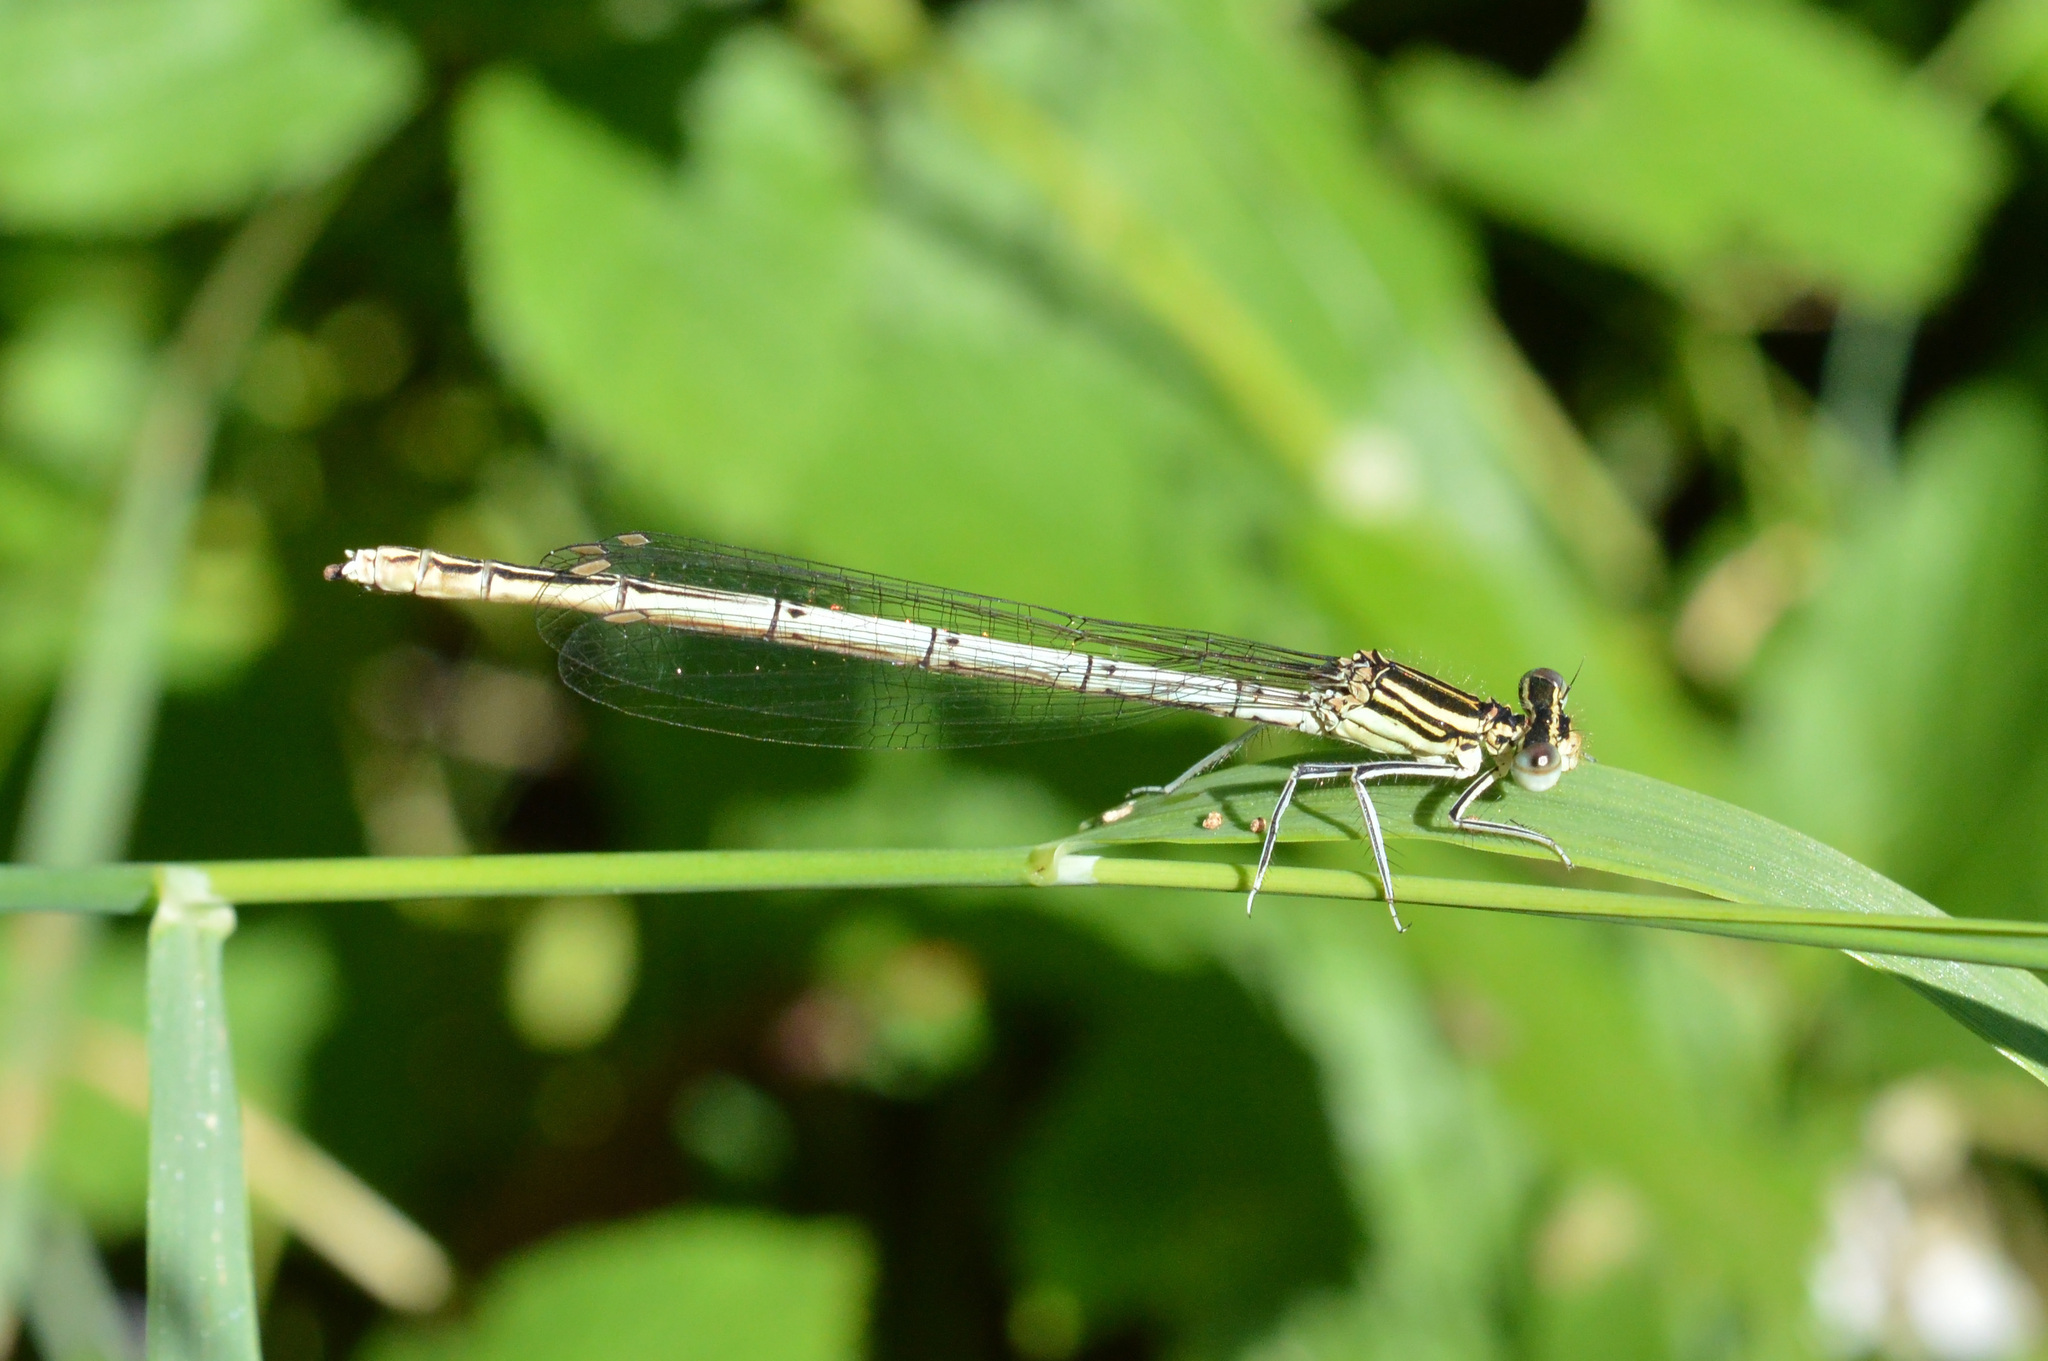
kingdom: Animalia
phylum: Arthropoda
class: Insecta
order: Odonata
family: Platycnemididae
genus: Platycnemis
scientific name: Platycnemis pennipes
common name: White-legged damselfly
